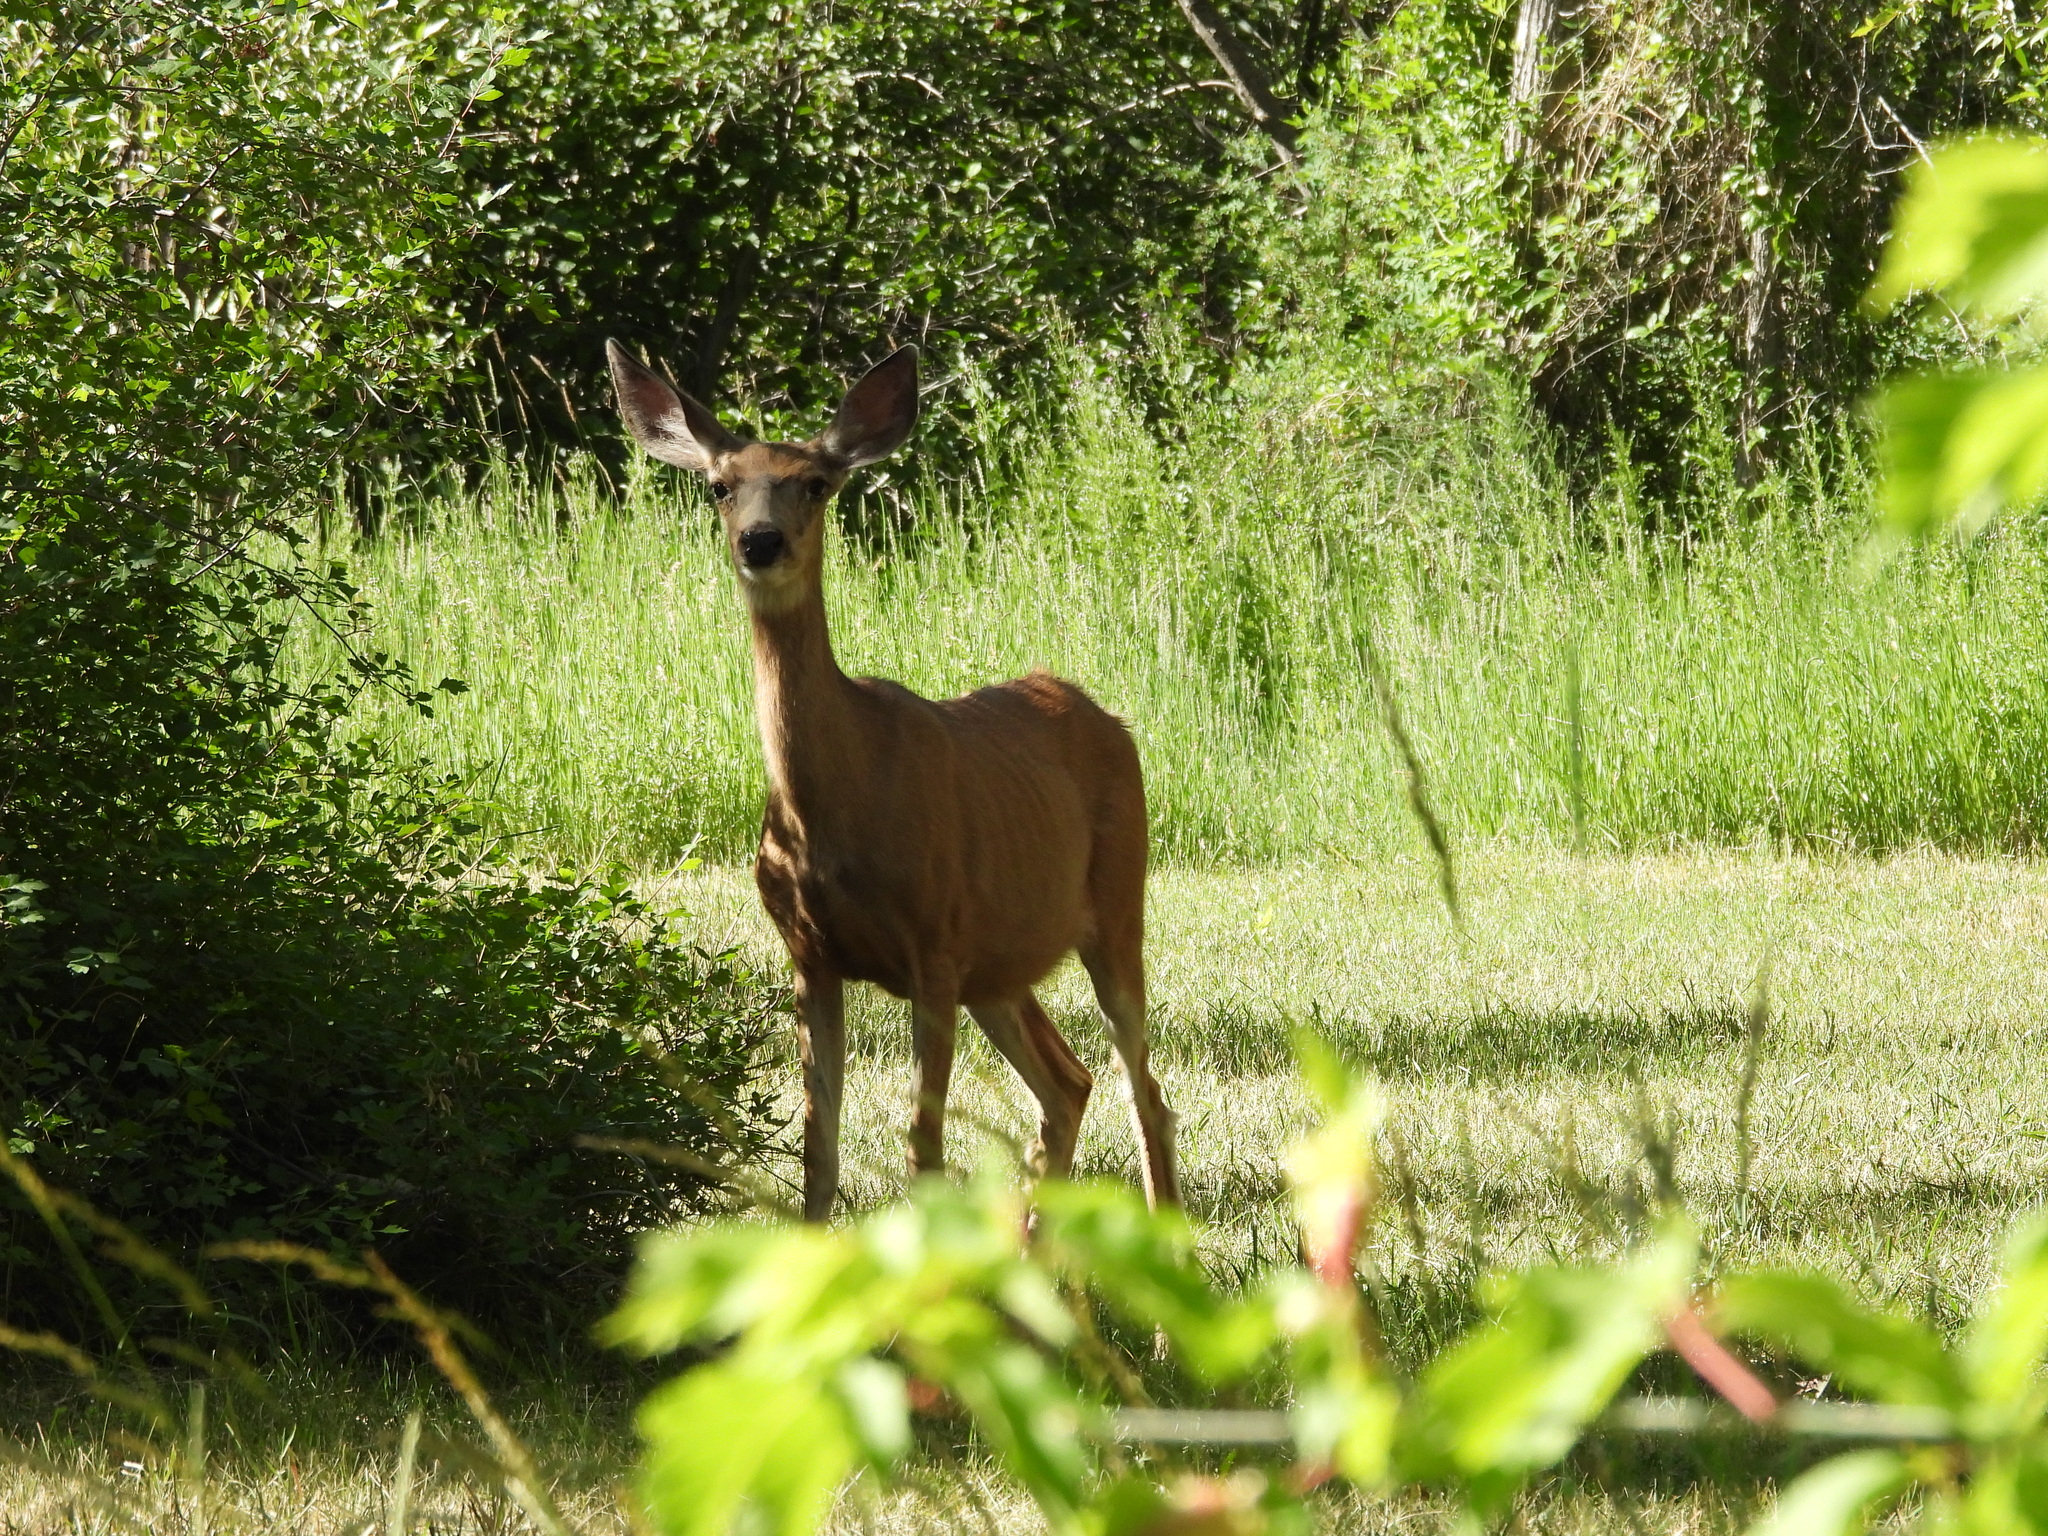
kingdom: Animalia
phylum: Chordata
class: Mammalia
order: Artiodactyla
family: Cervidae
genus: Odocoileus
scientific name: Odocoileus hemionus
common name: Mule deer
